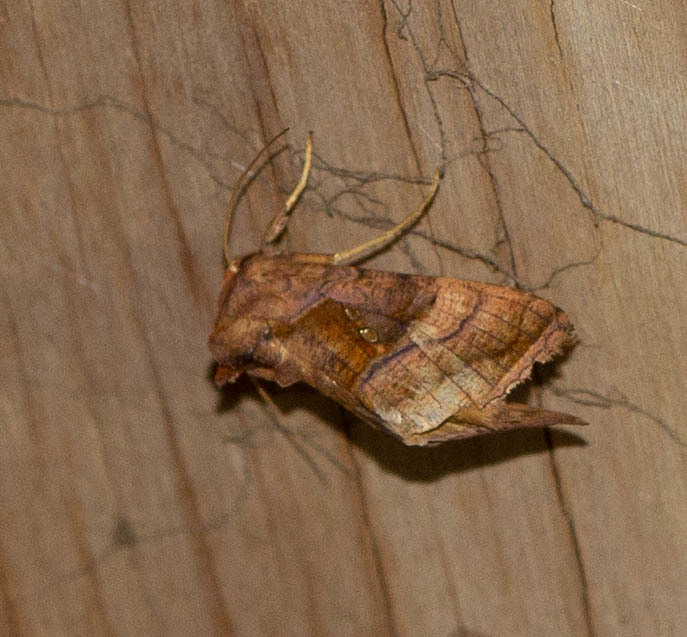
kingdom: Animalia
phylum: Arthropoda
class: Insecta
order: Lepidoptera
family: Noctuidae
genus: Enigmogramma
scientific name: Enigmogramma basigera
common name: Pink-washed looper moth
